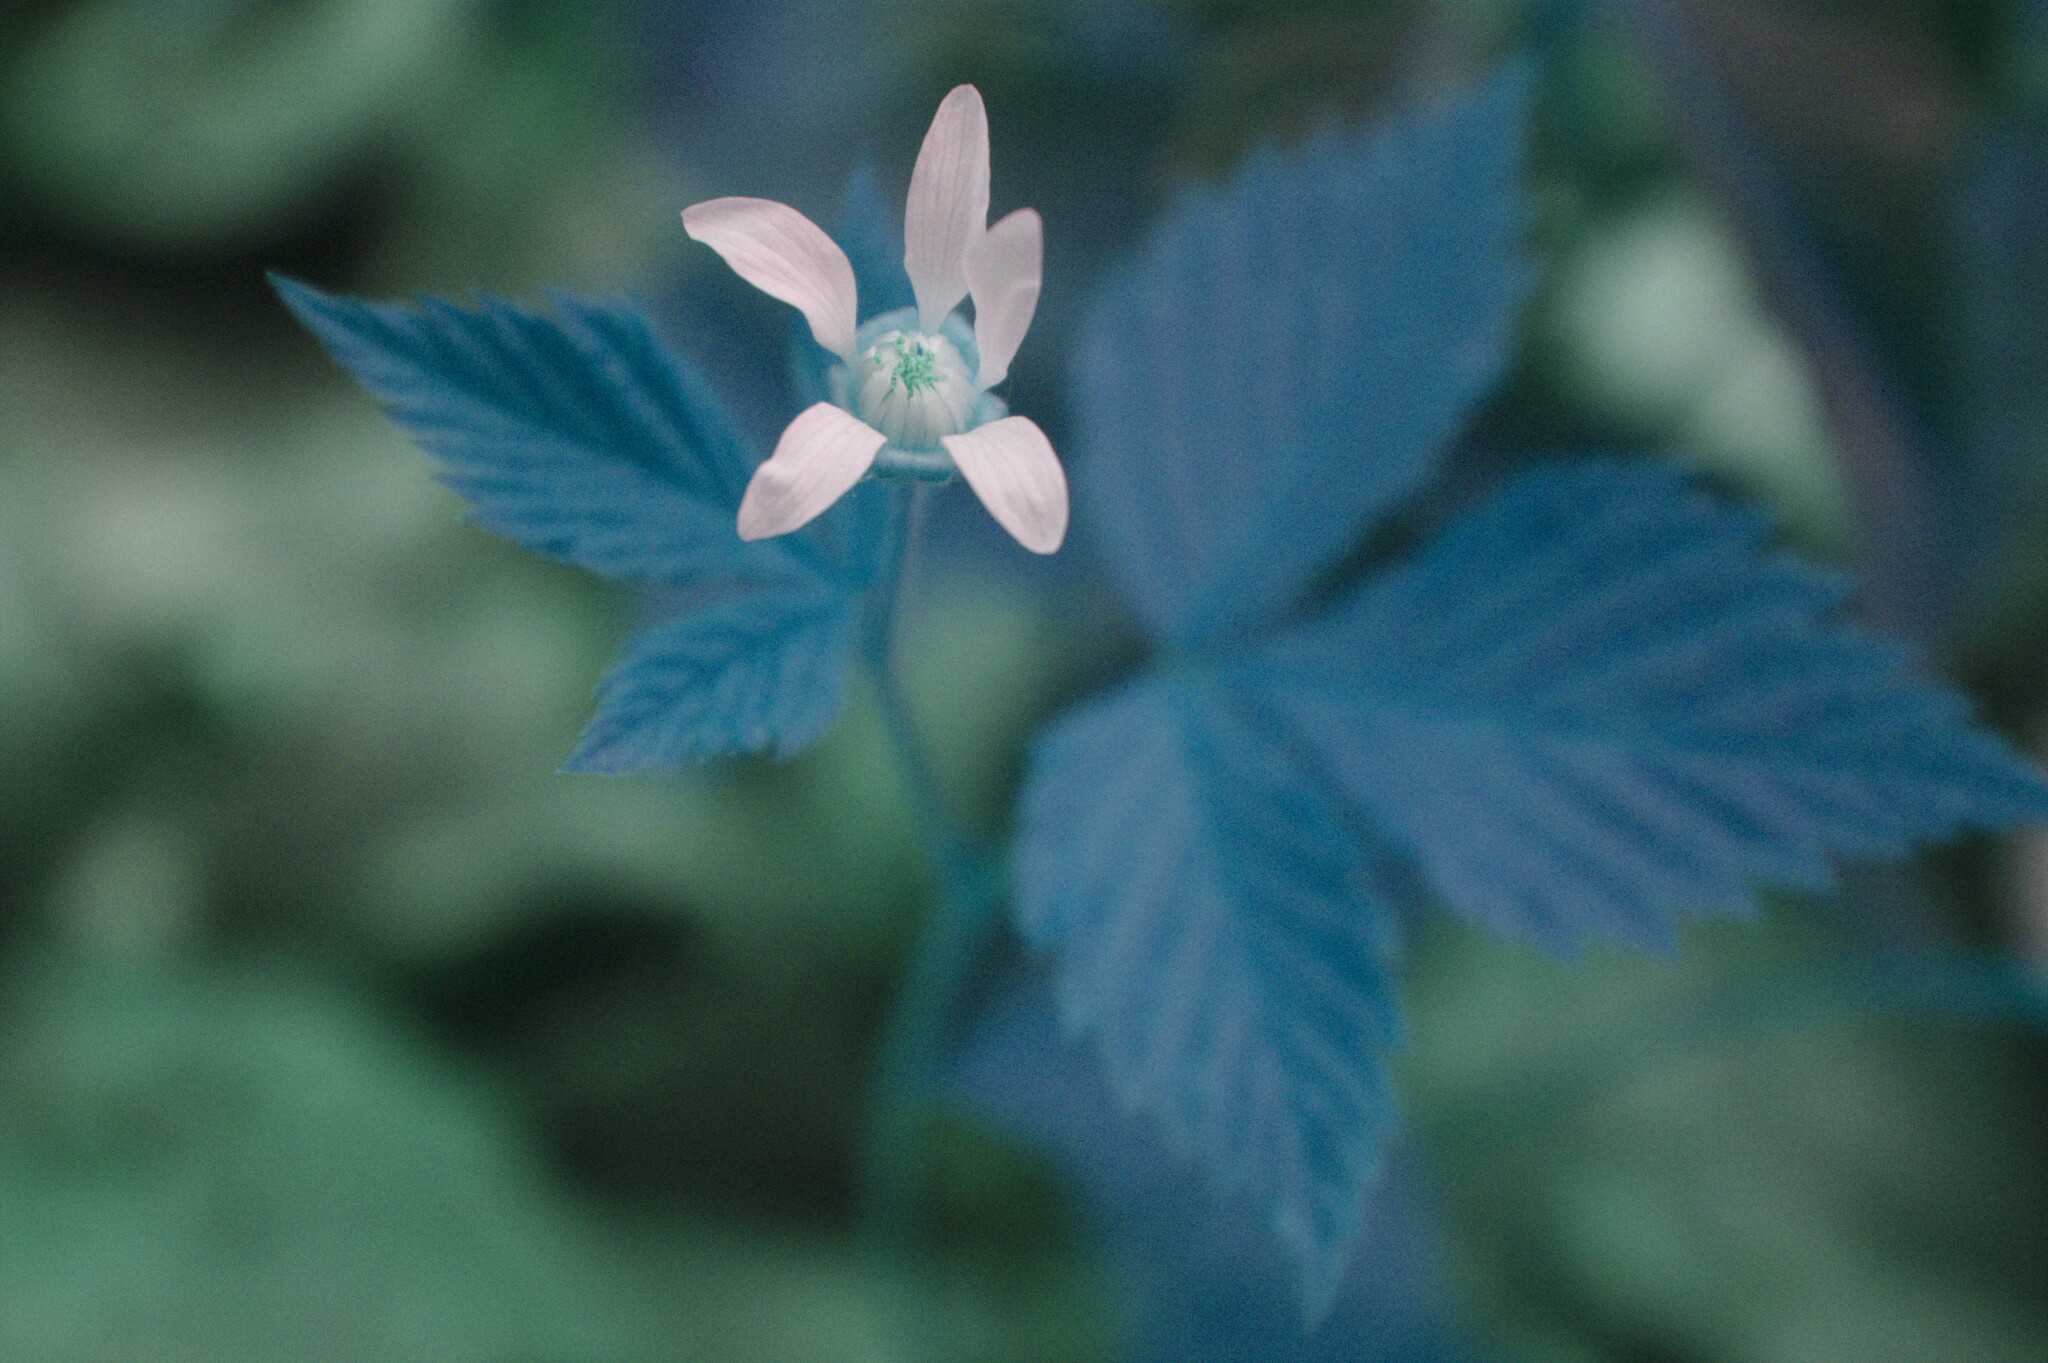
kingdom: Plantae
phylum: Tracheophyta
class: Magnoliopsida
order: Rosales
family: Rosaceae
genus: Rubus
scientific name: Rubus pubescens
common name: Dwarf raspberry
